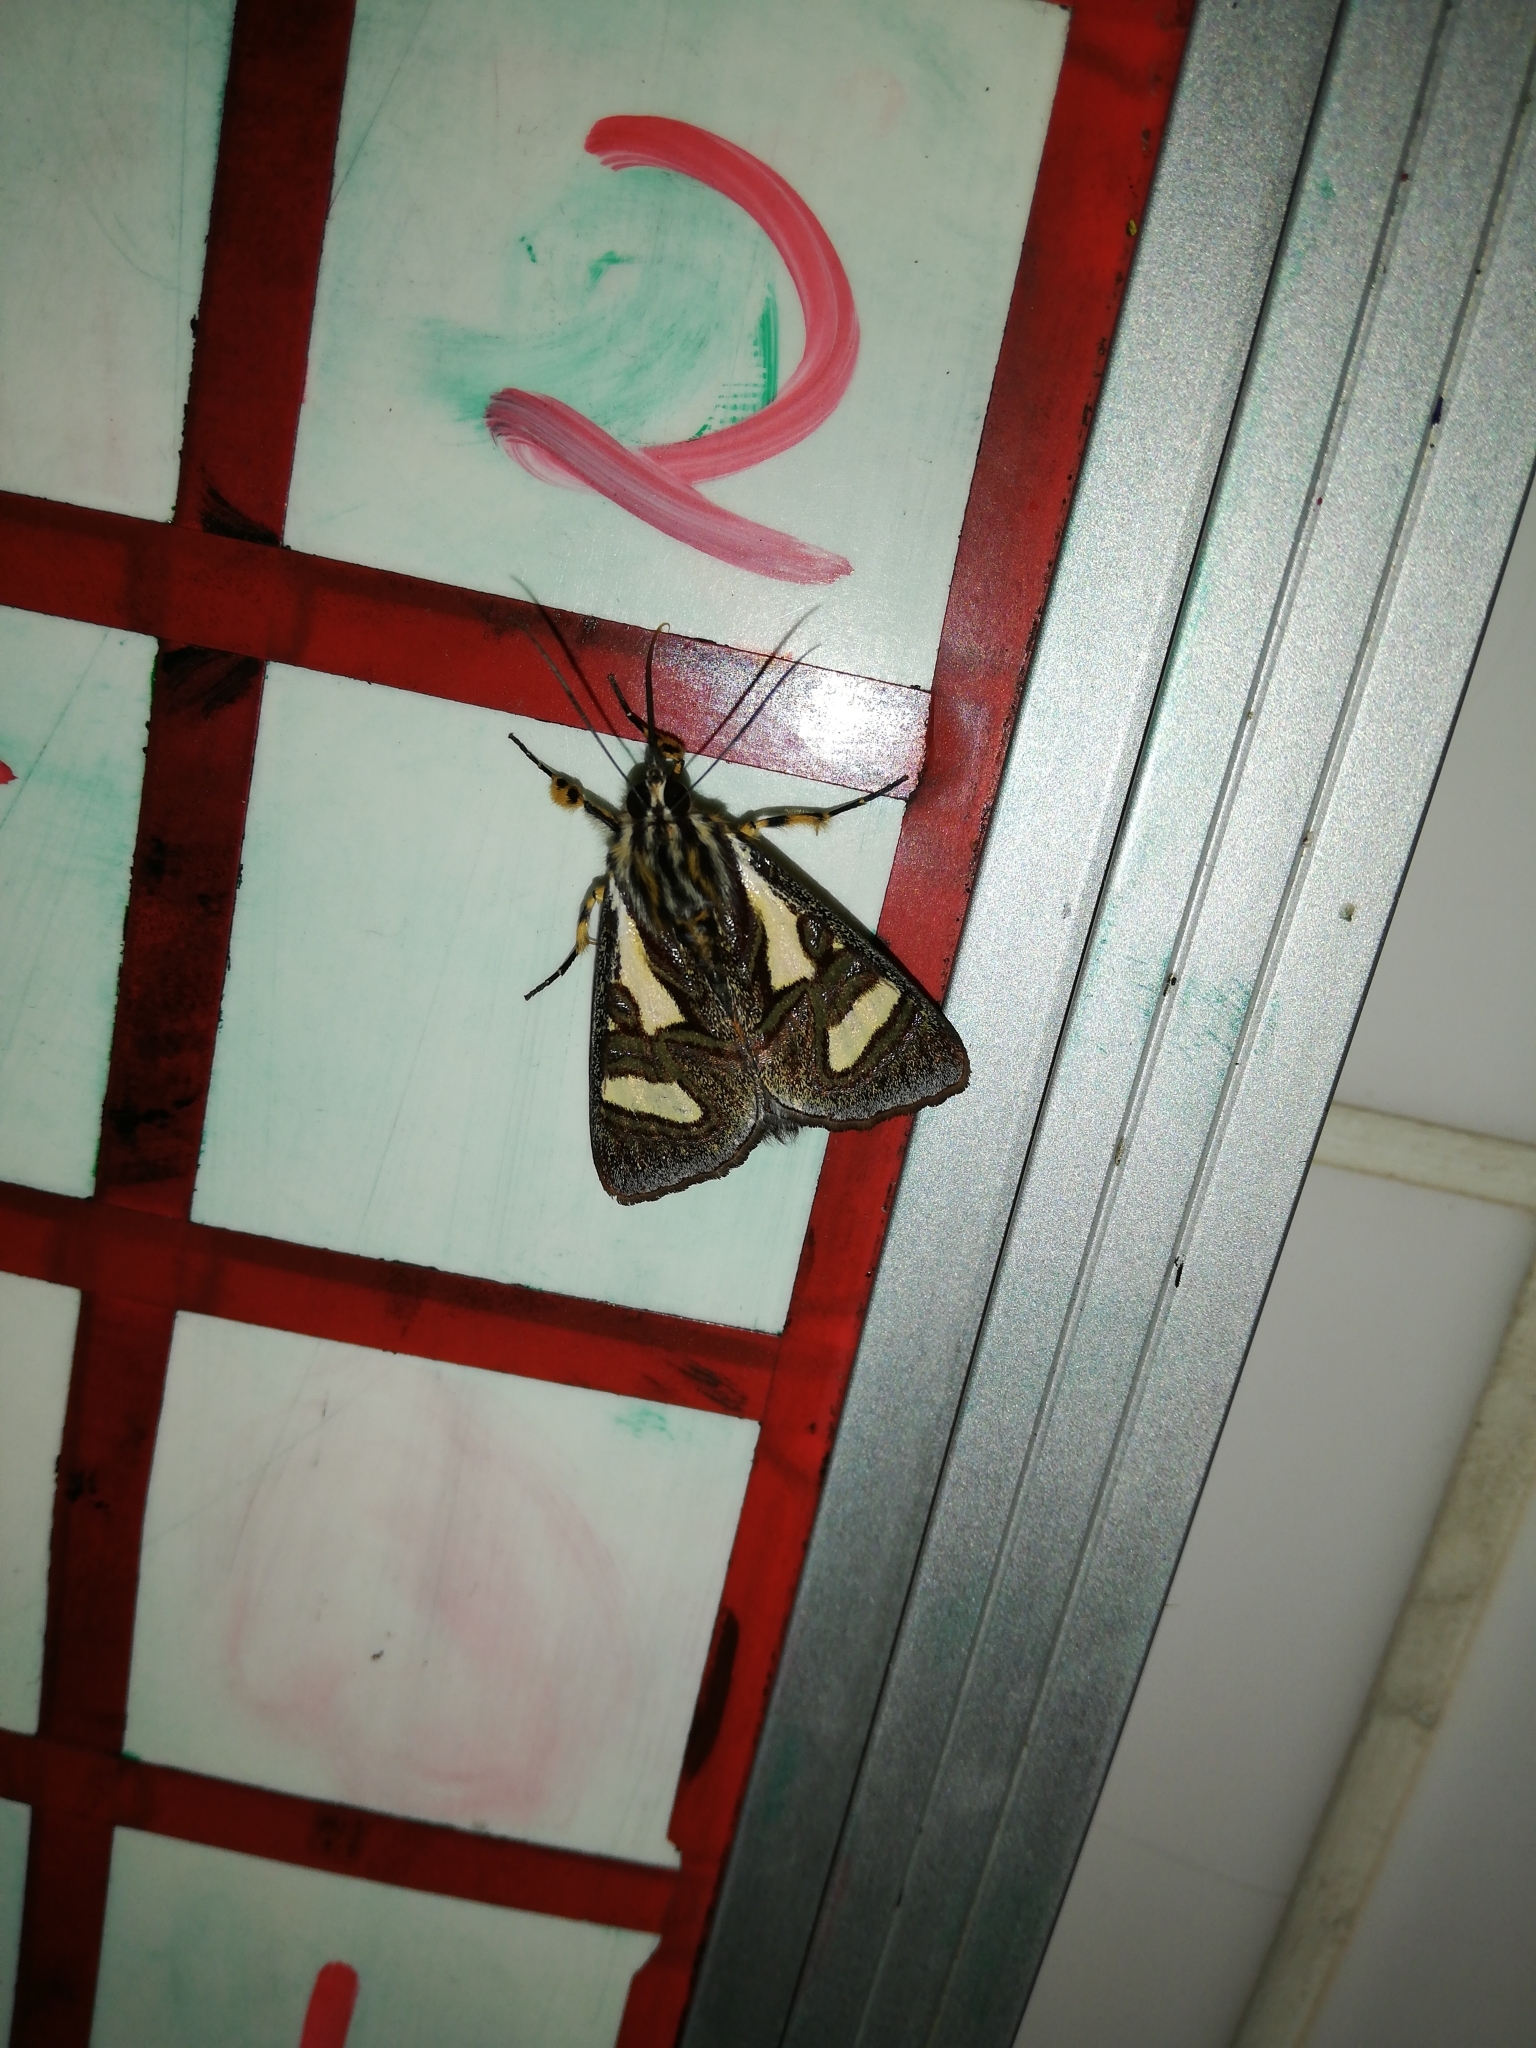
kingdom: Animalia
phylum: Arthropoda
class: Insecta
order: Lepidoptera
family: Noctuidae
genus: Agoma
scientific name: Agoma trimenii
